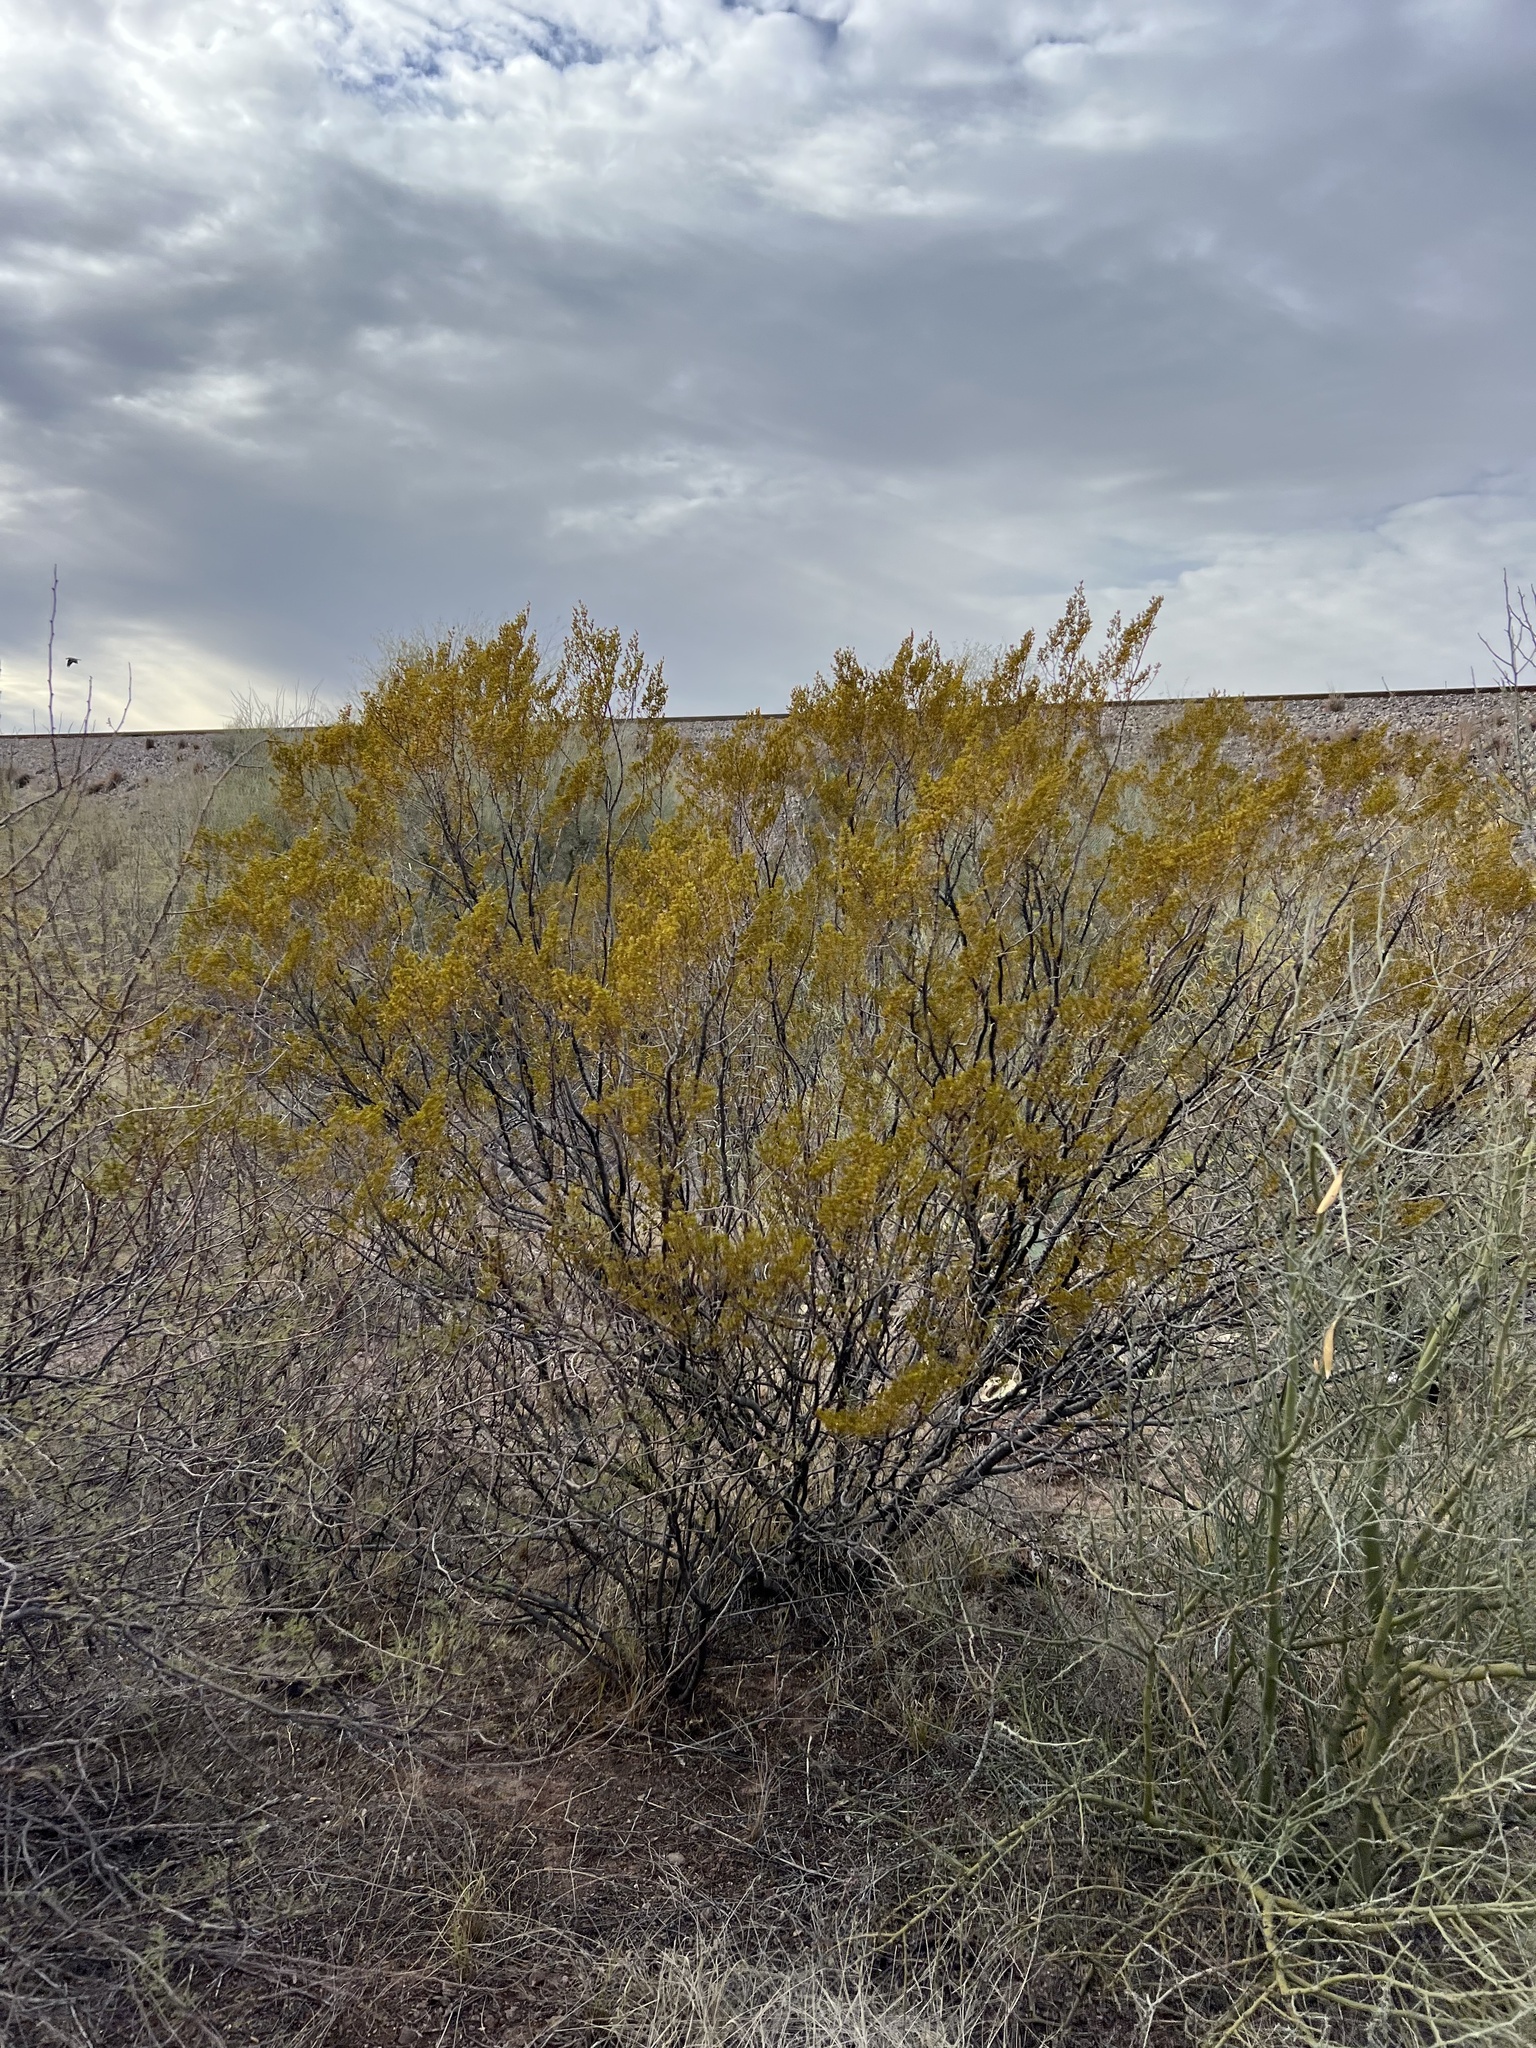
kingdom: Plantae
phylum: Tracheophyta
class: Magnoliopsida
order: Zygophyllales
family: Zygophyllaceae
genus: Larrea
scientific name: Larrea tridentata
